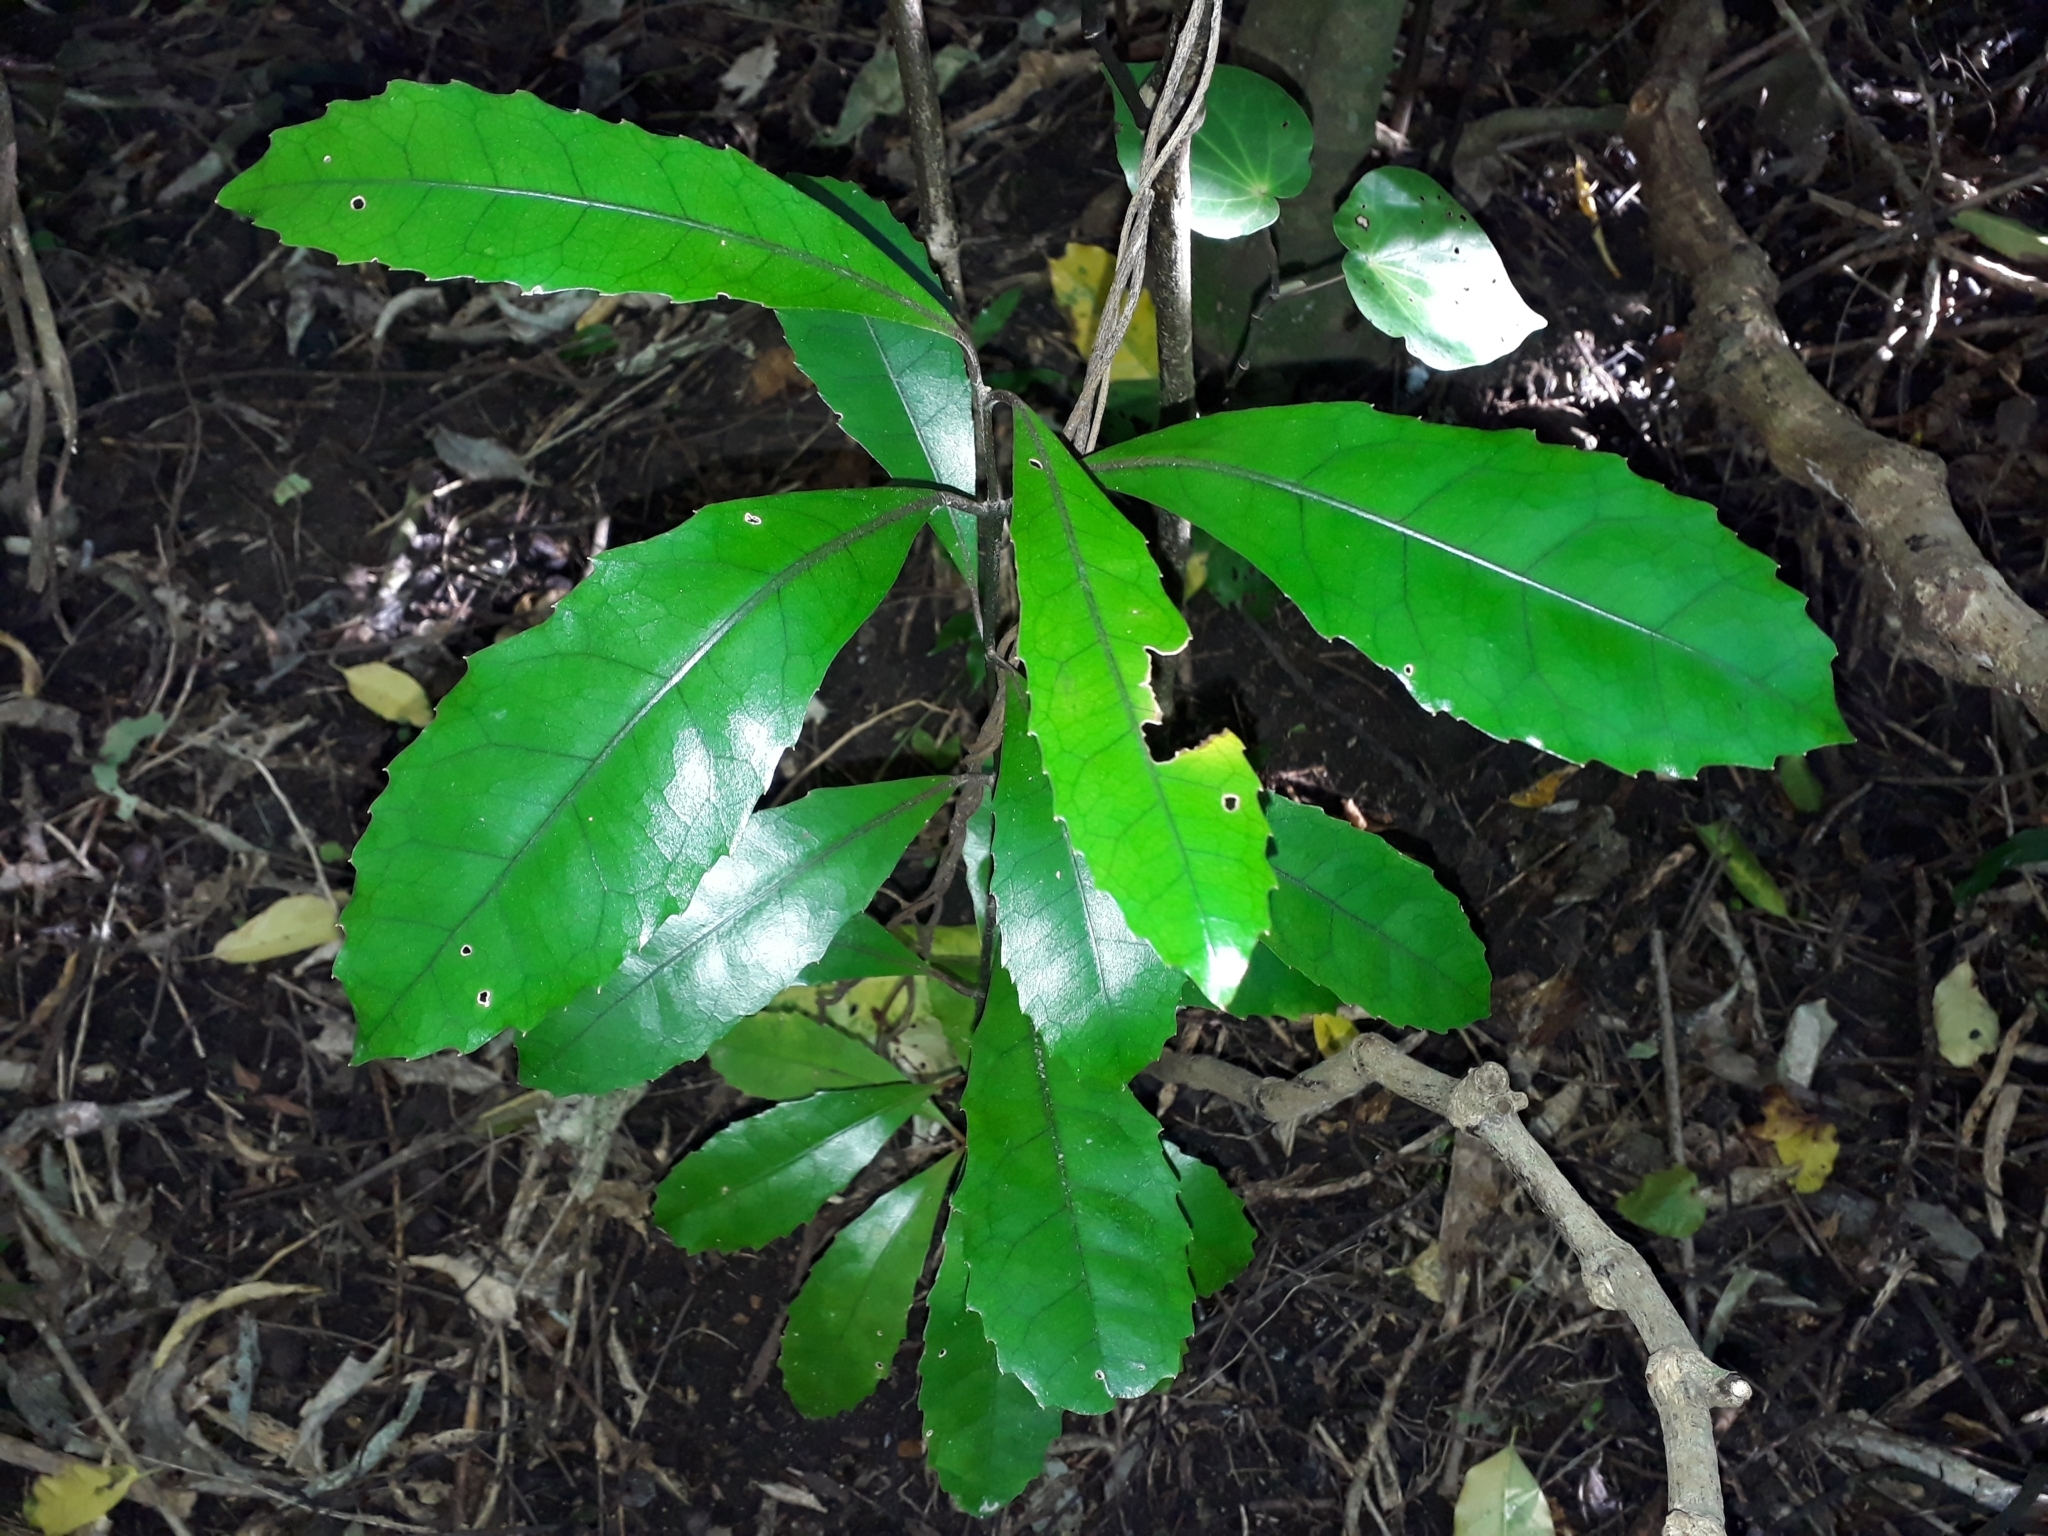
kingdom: Plantae
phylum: Tracheophyta
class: Magnoliopsida
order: Laurales
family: Monimiaceae
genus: Hedycarya
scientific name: Hedycarya arborea
